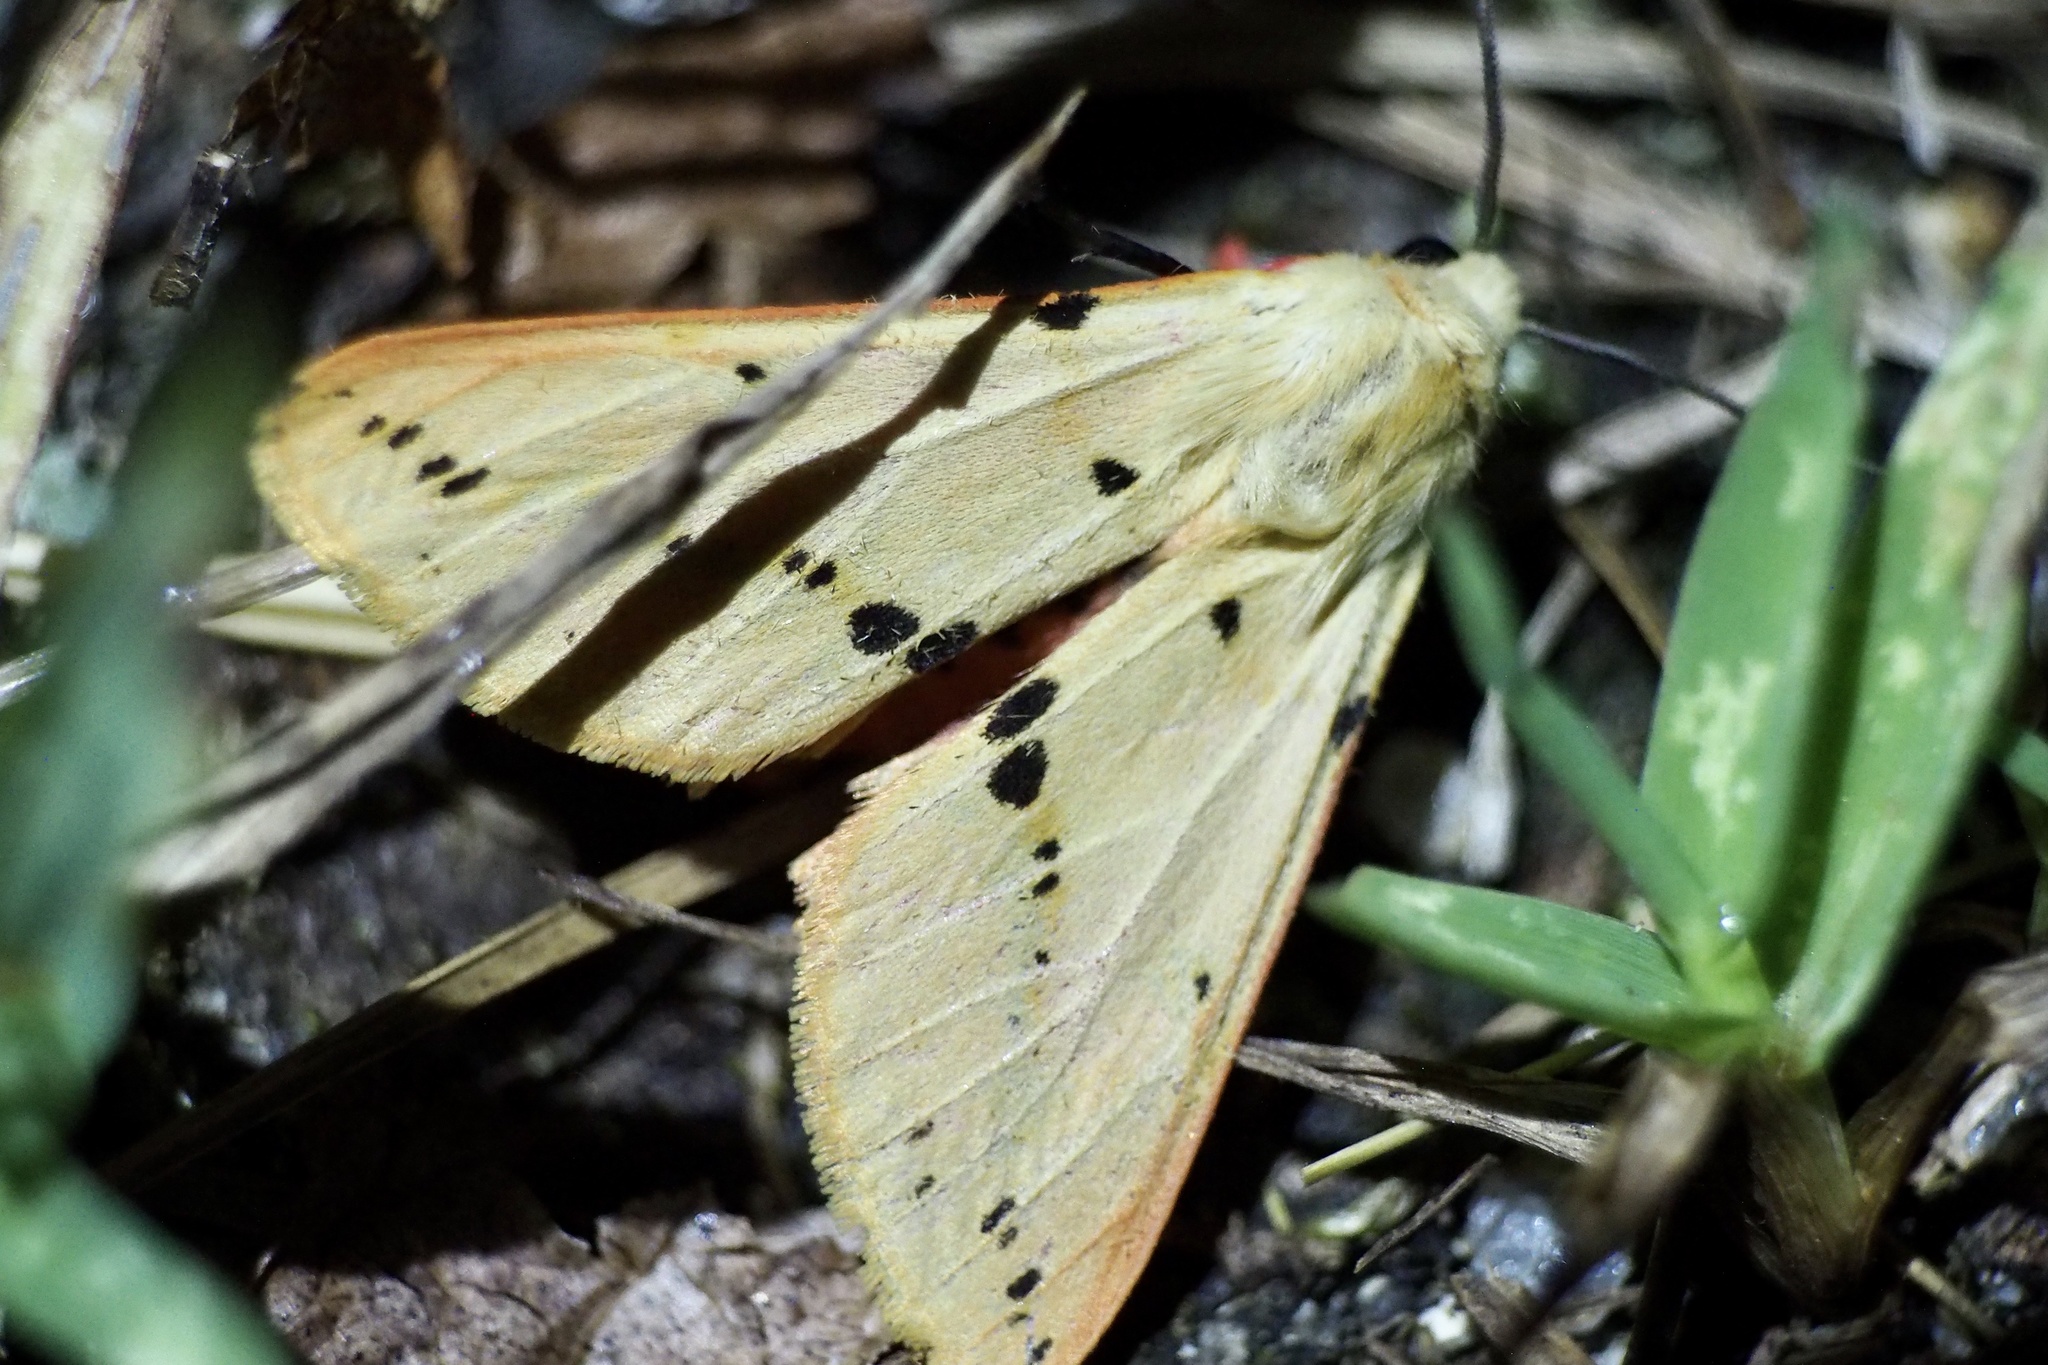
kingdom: Animalia
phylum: Arthropoda
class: Insecta
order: Lepidoptera
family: Erebidae
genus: Spilarctia
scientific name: Spilarctia seriatopunctata
